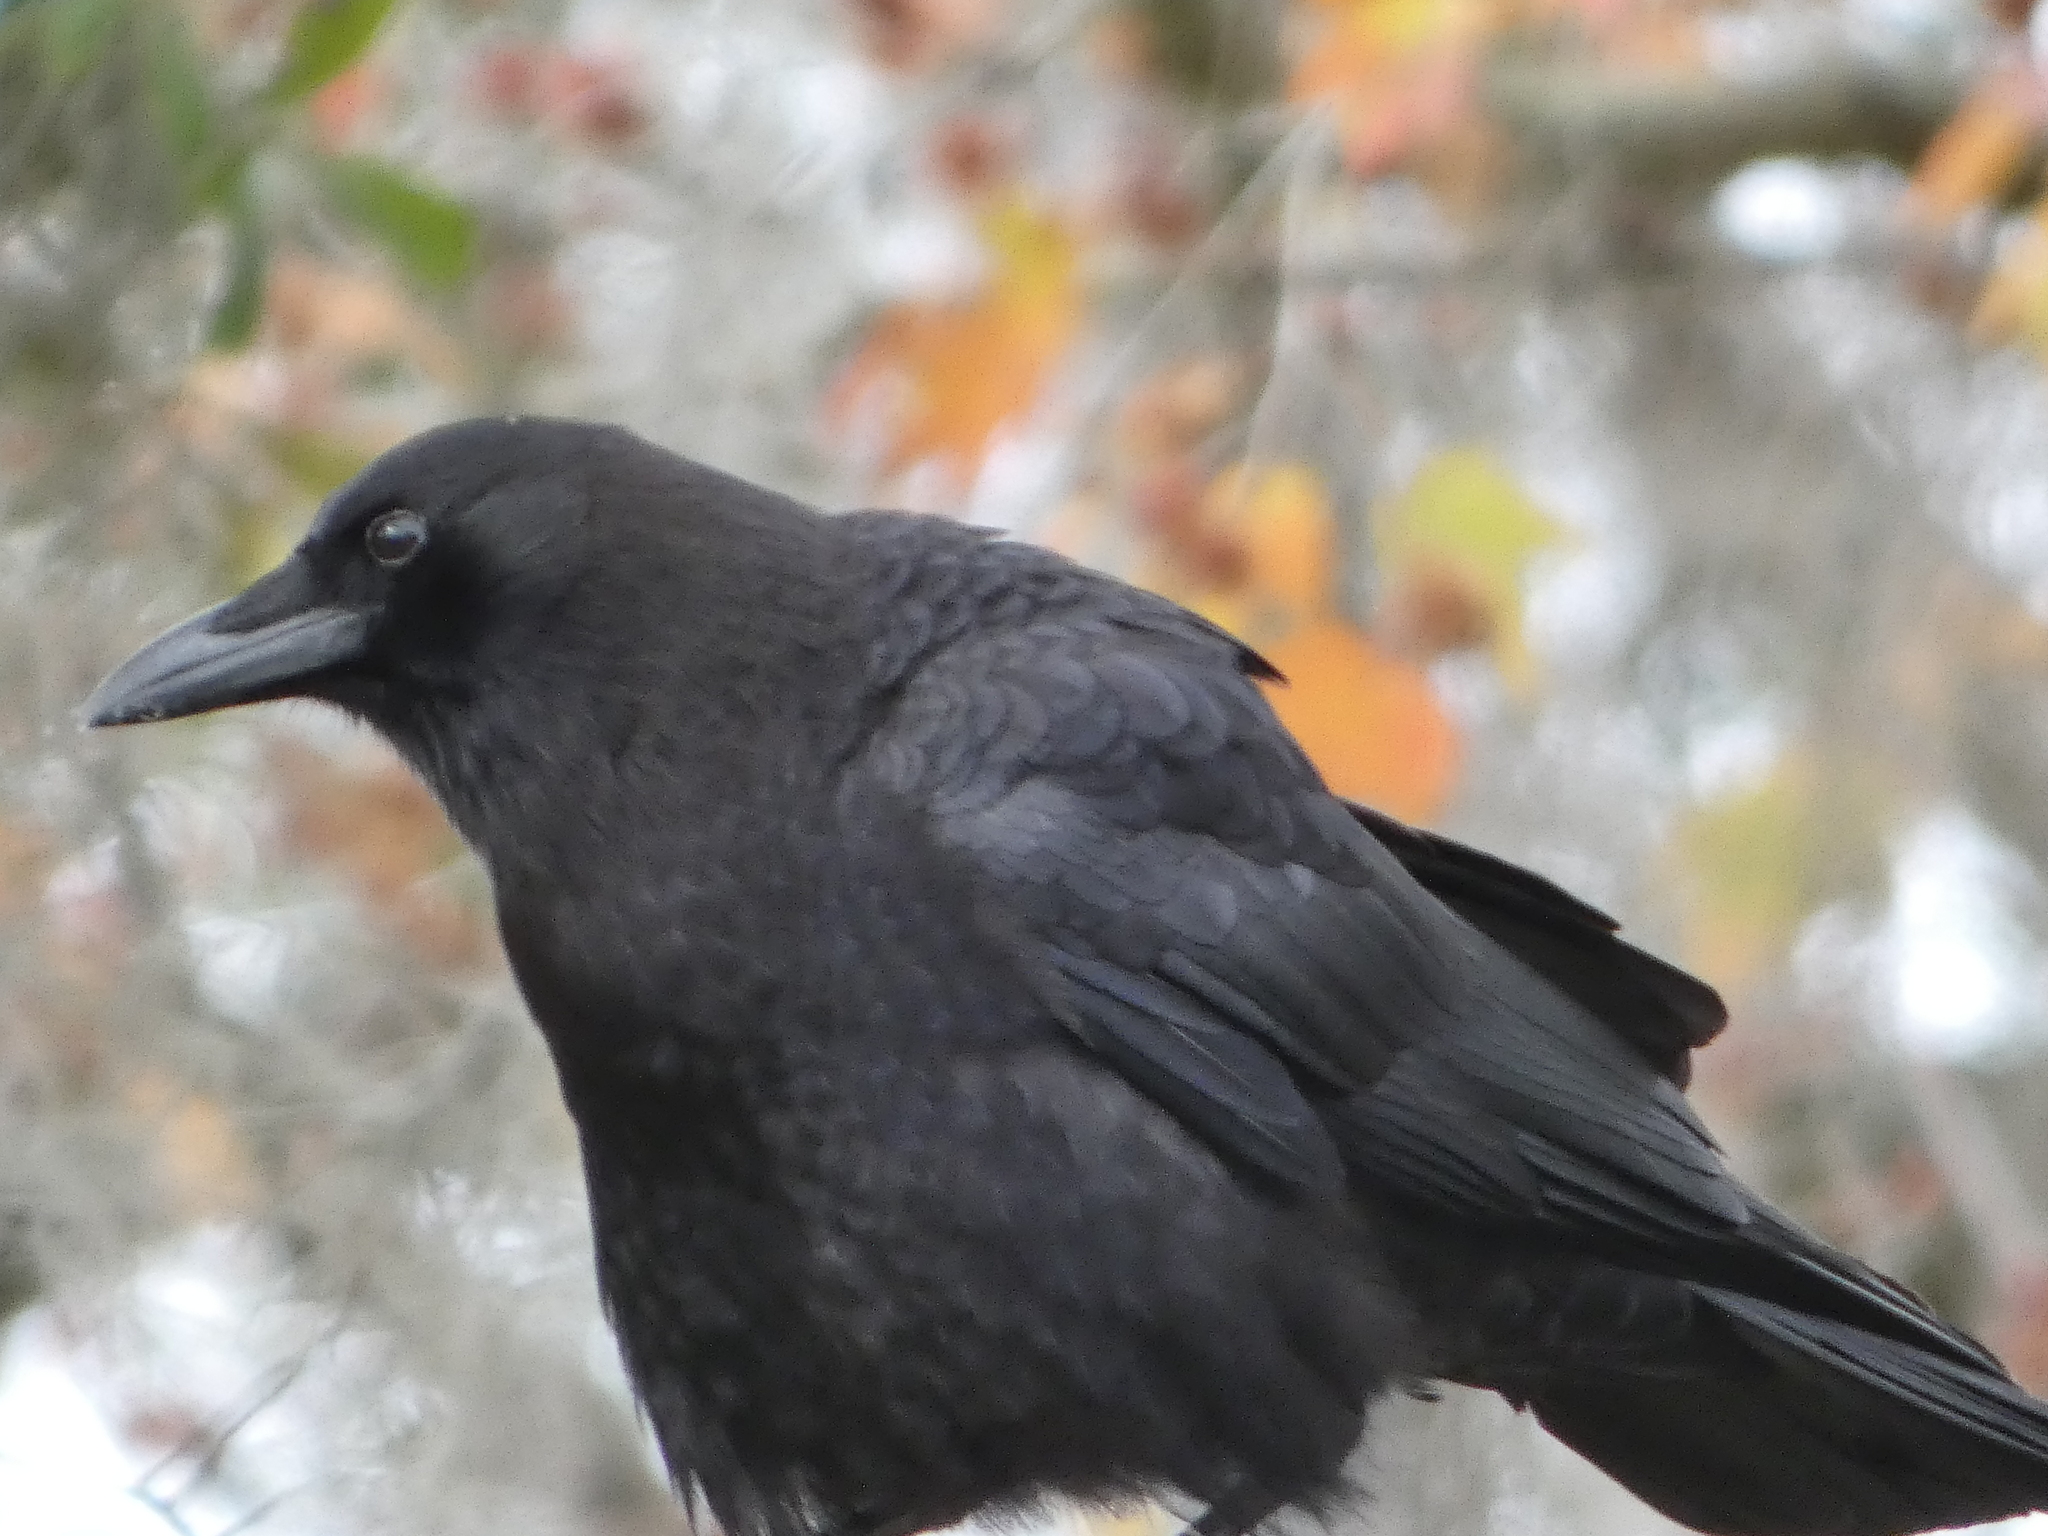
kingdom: Animalia
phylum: Chordata
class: Aves
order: Passeriformes
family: Corvidae
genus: Corvus
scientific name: Corvus brachyrhynchos
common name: American crow
